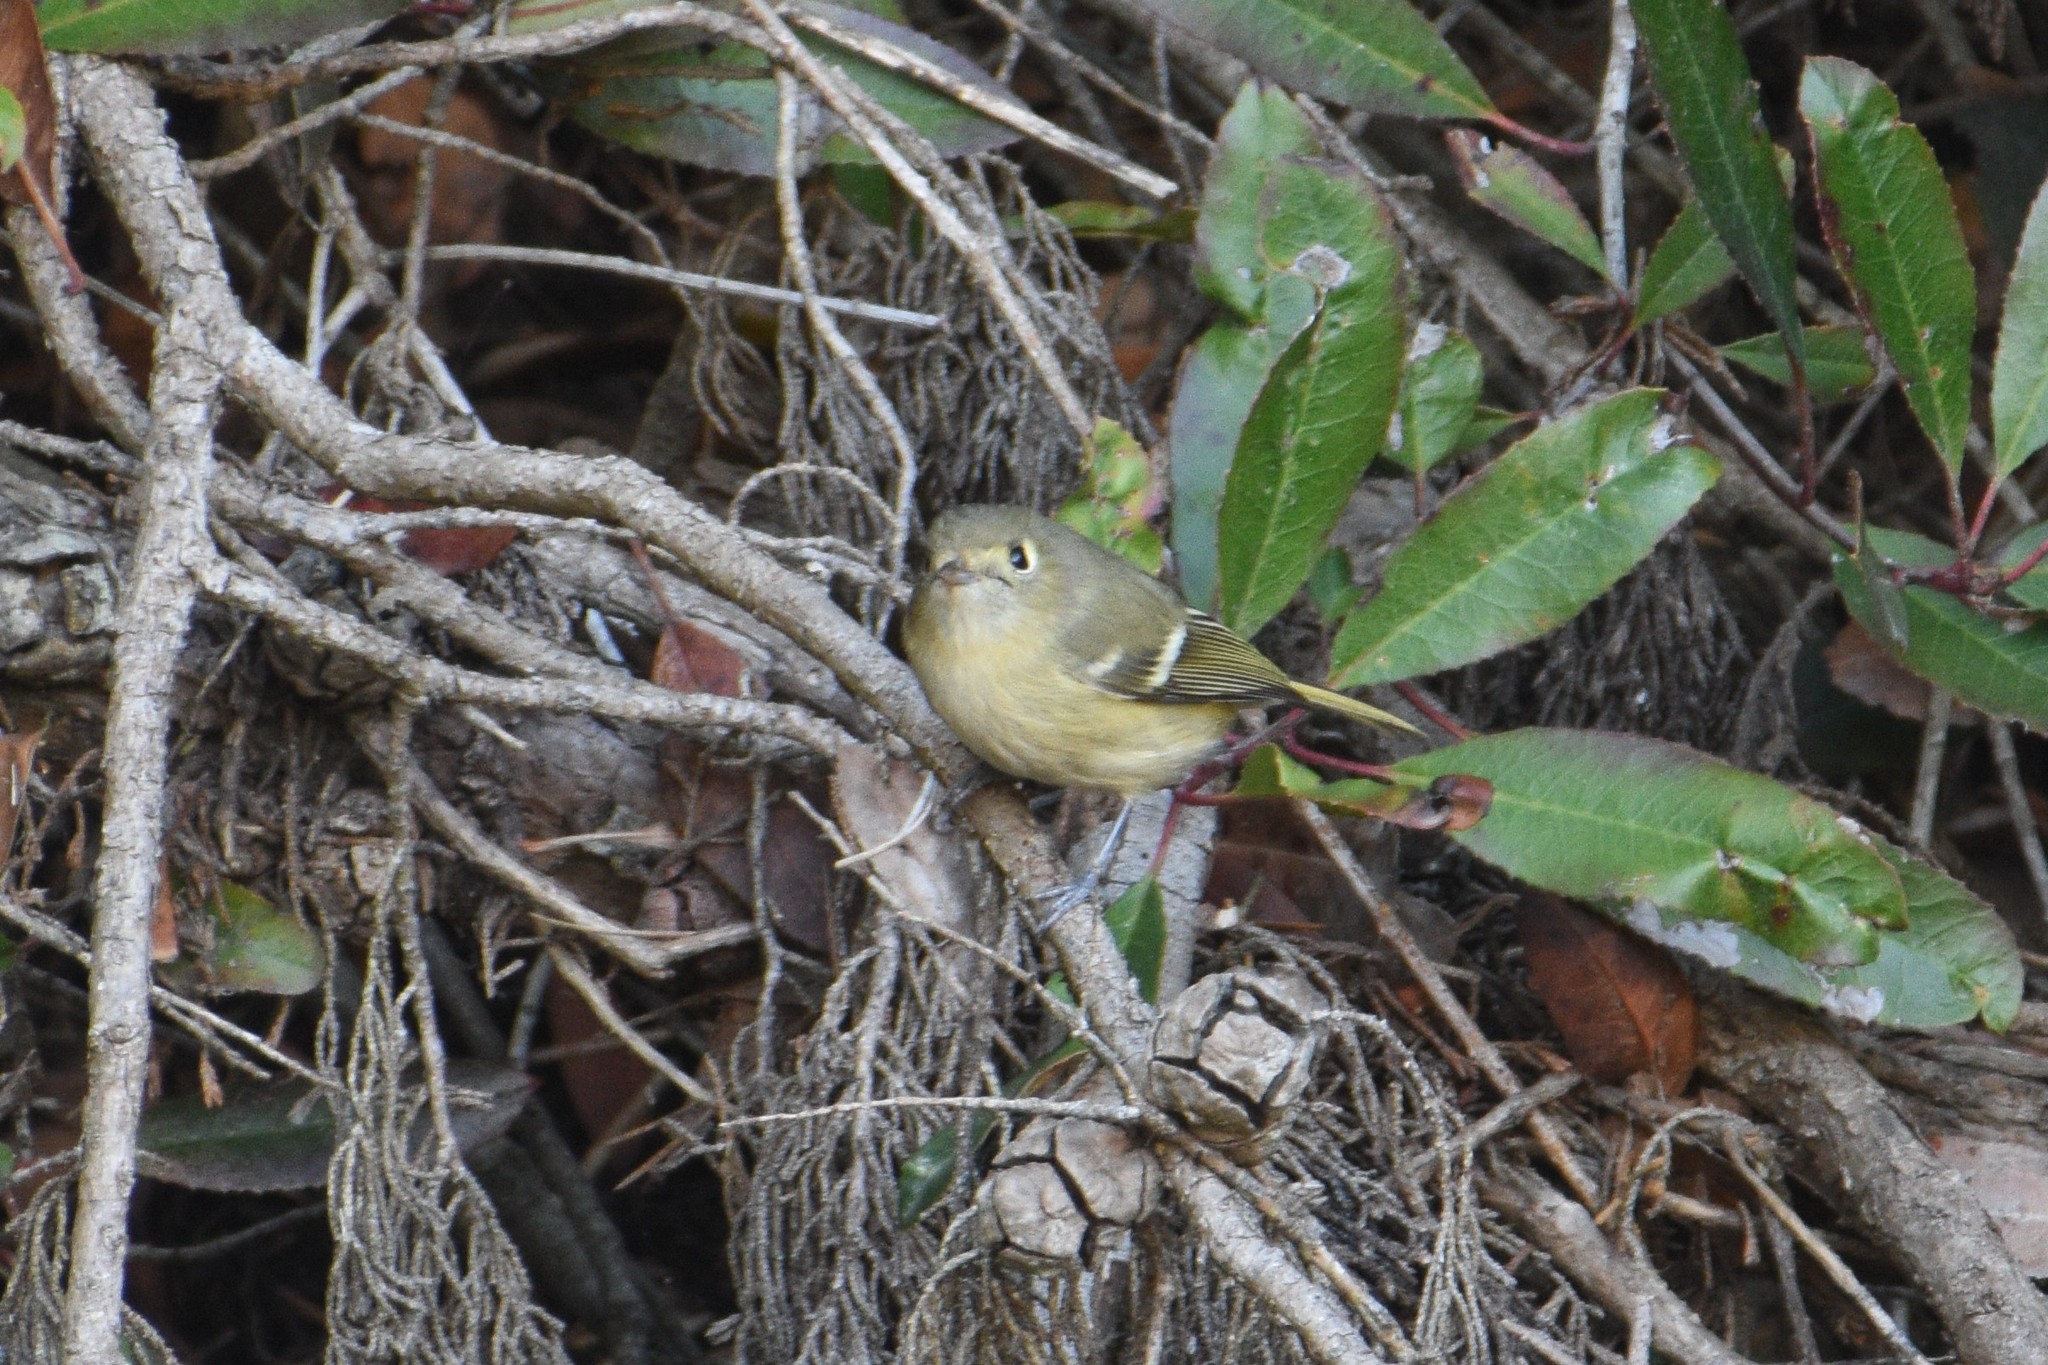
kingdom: Animalia
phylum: Chordata
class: Aves
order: Passeriformes
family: Vireonidae
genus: Vireo
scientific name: Vireo huttoni
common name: Hutton's vireo
